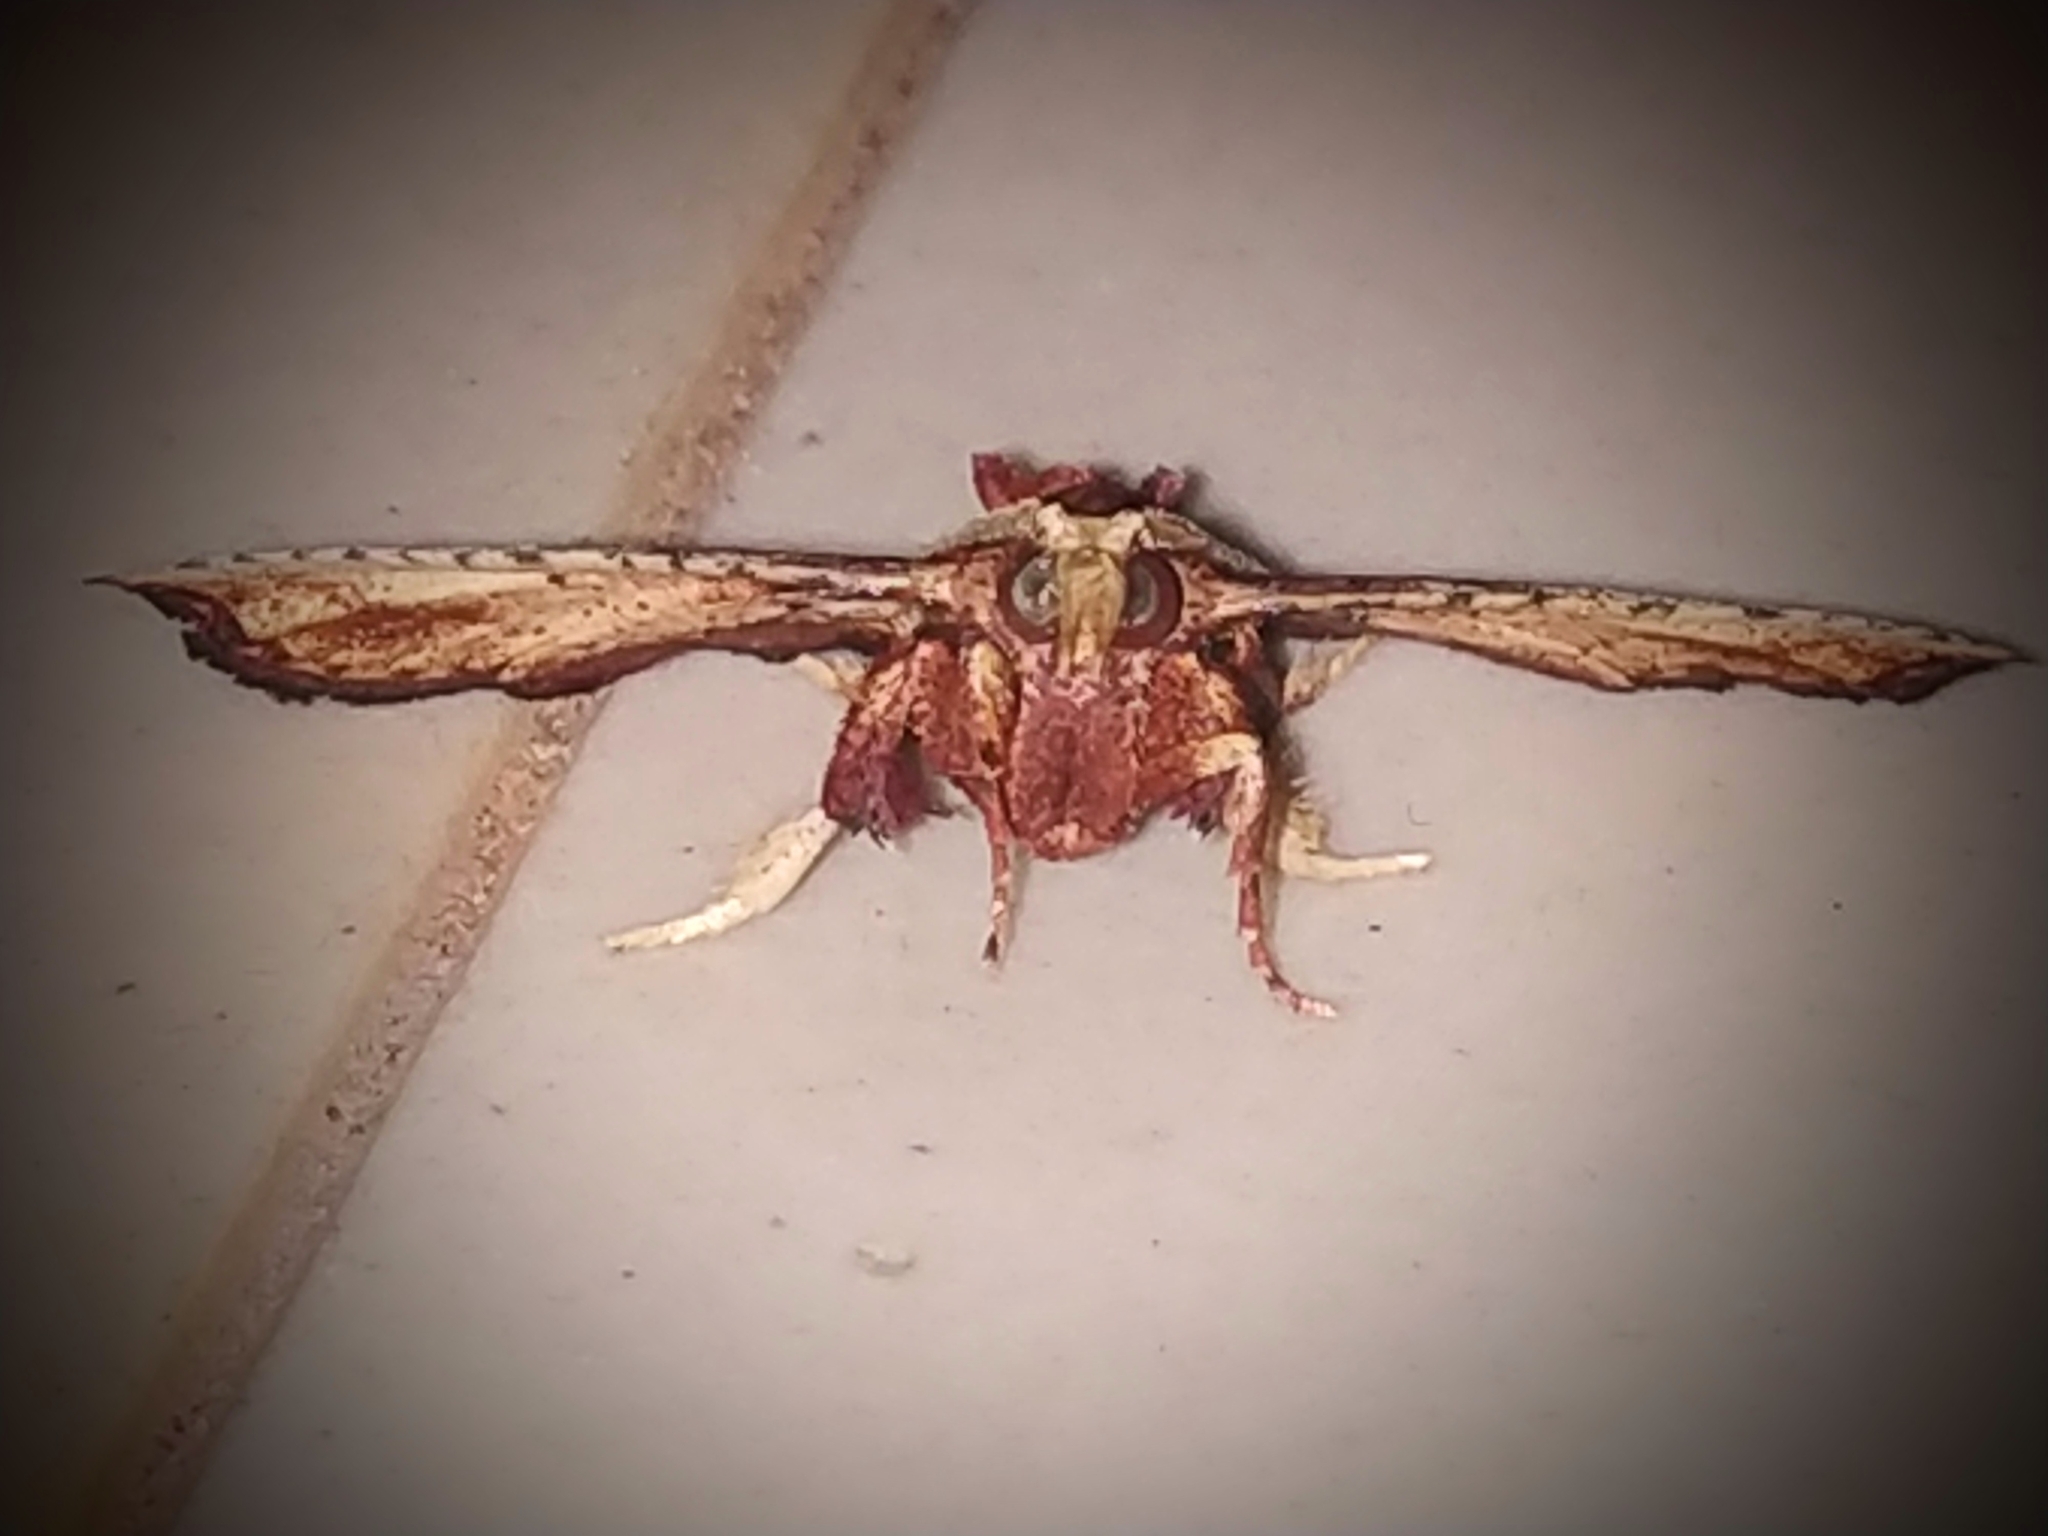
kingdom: Animalia
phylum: Arthropoda
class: Insecta
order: Lepidoptera
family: Pyralidae
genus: Zitha
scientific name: Zitha
